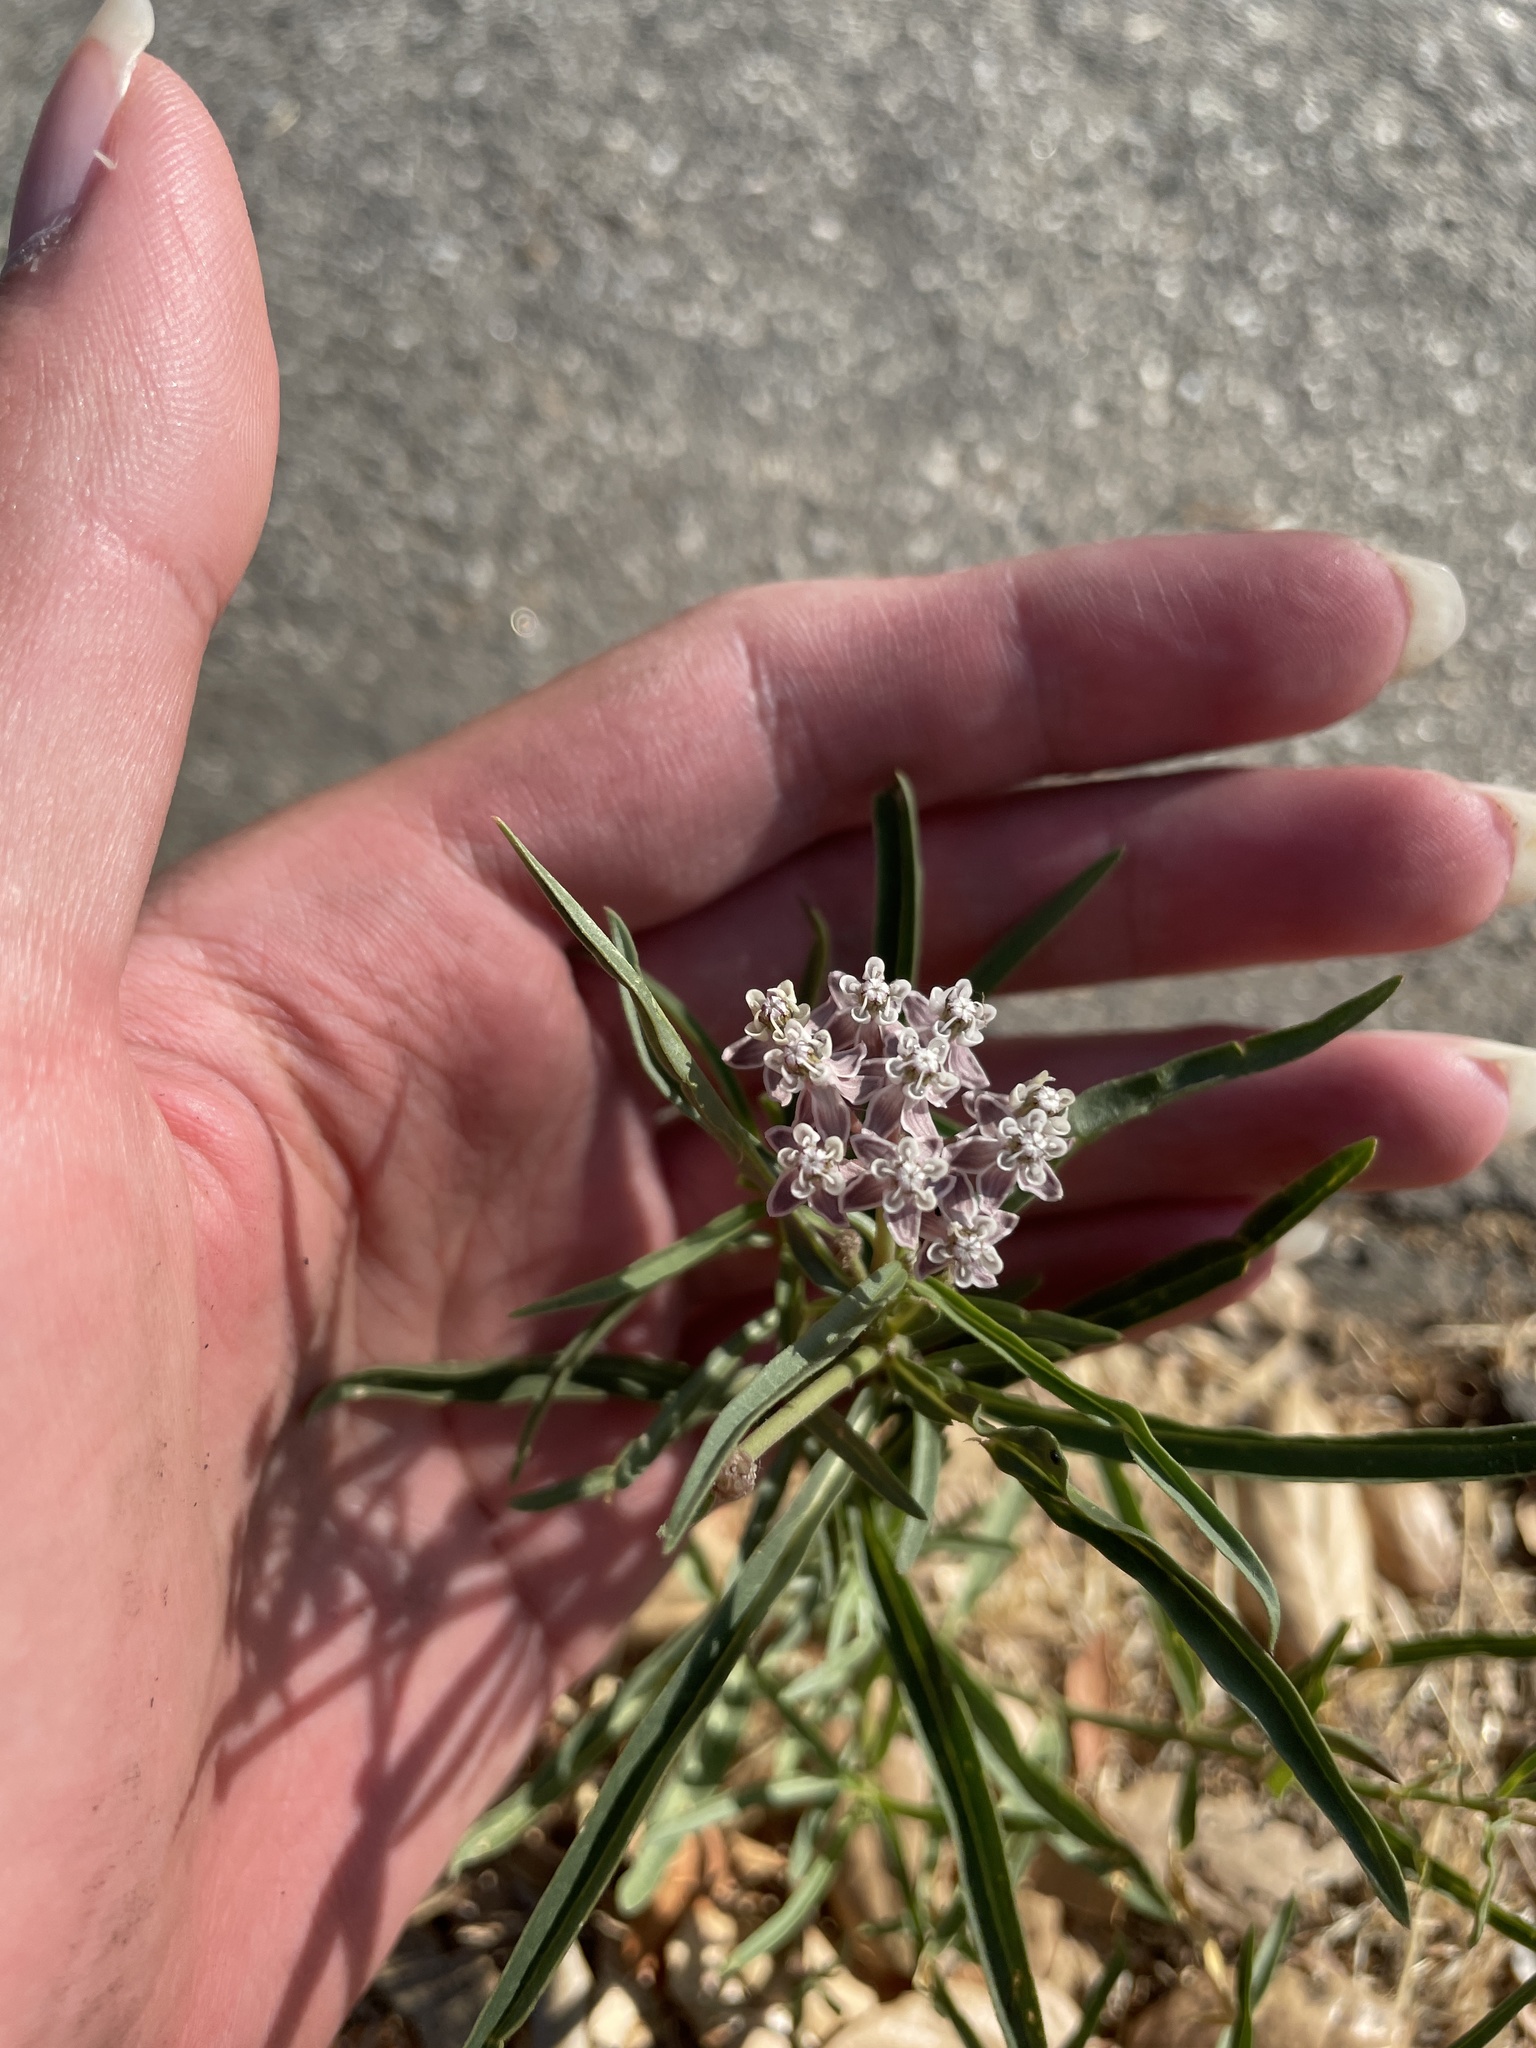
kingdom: Plantae
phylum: Tracheophyta
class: Magnoliopsida
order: Gentianales
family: Apocynaceae
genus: Asclepias
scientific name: Asclepias fascicularis
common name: Mexican milkweed
